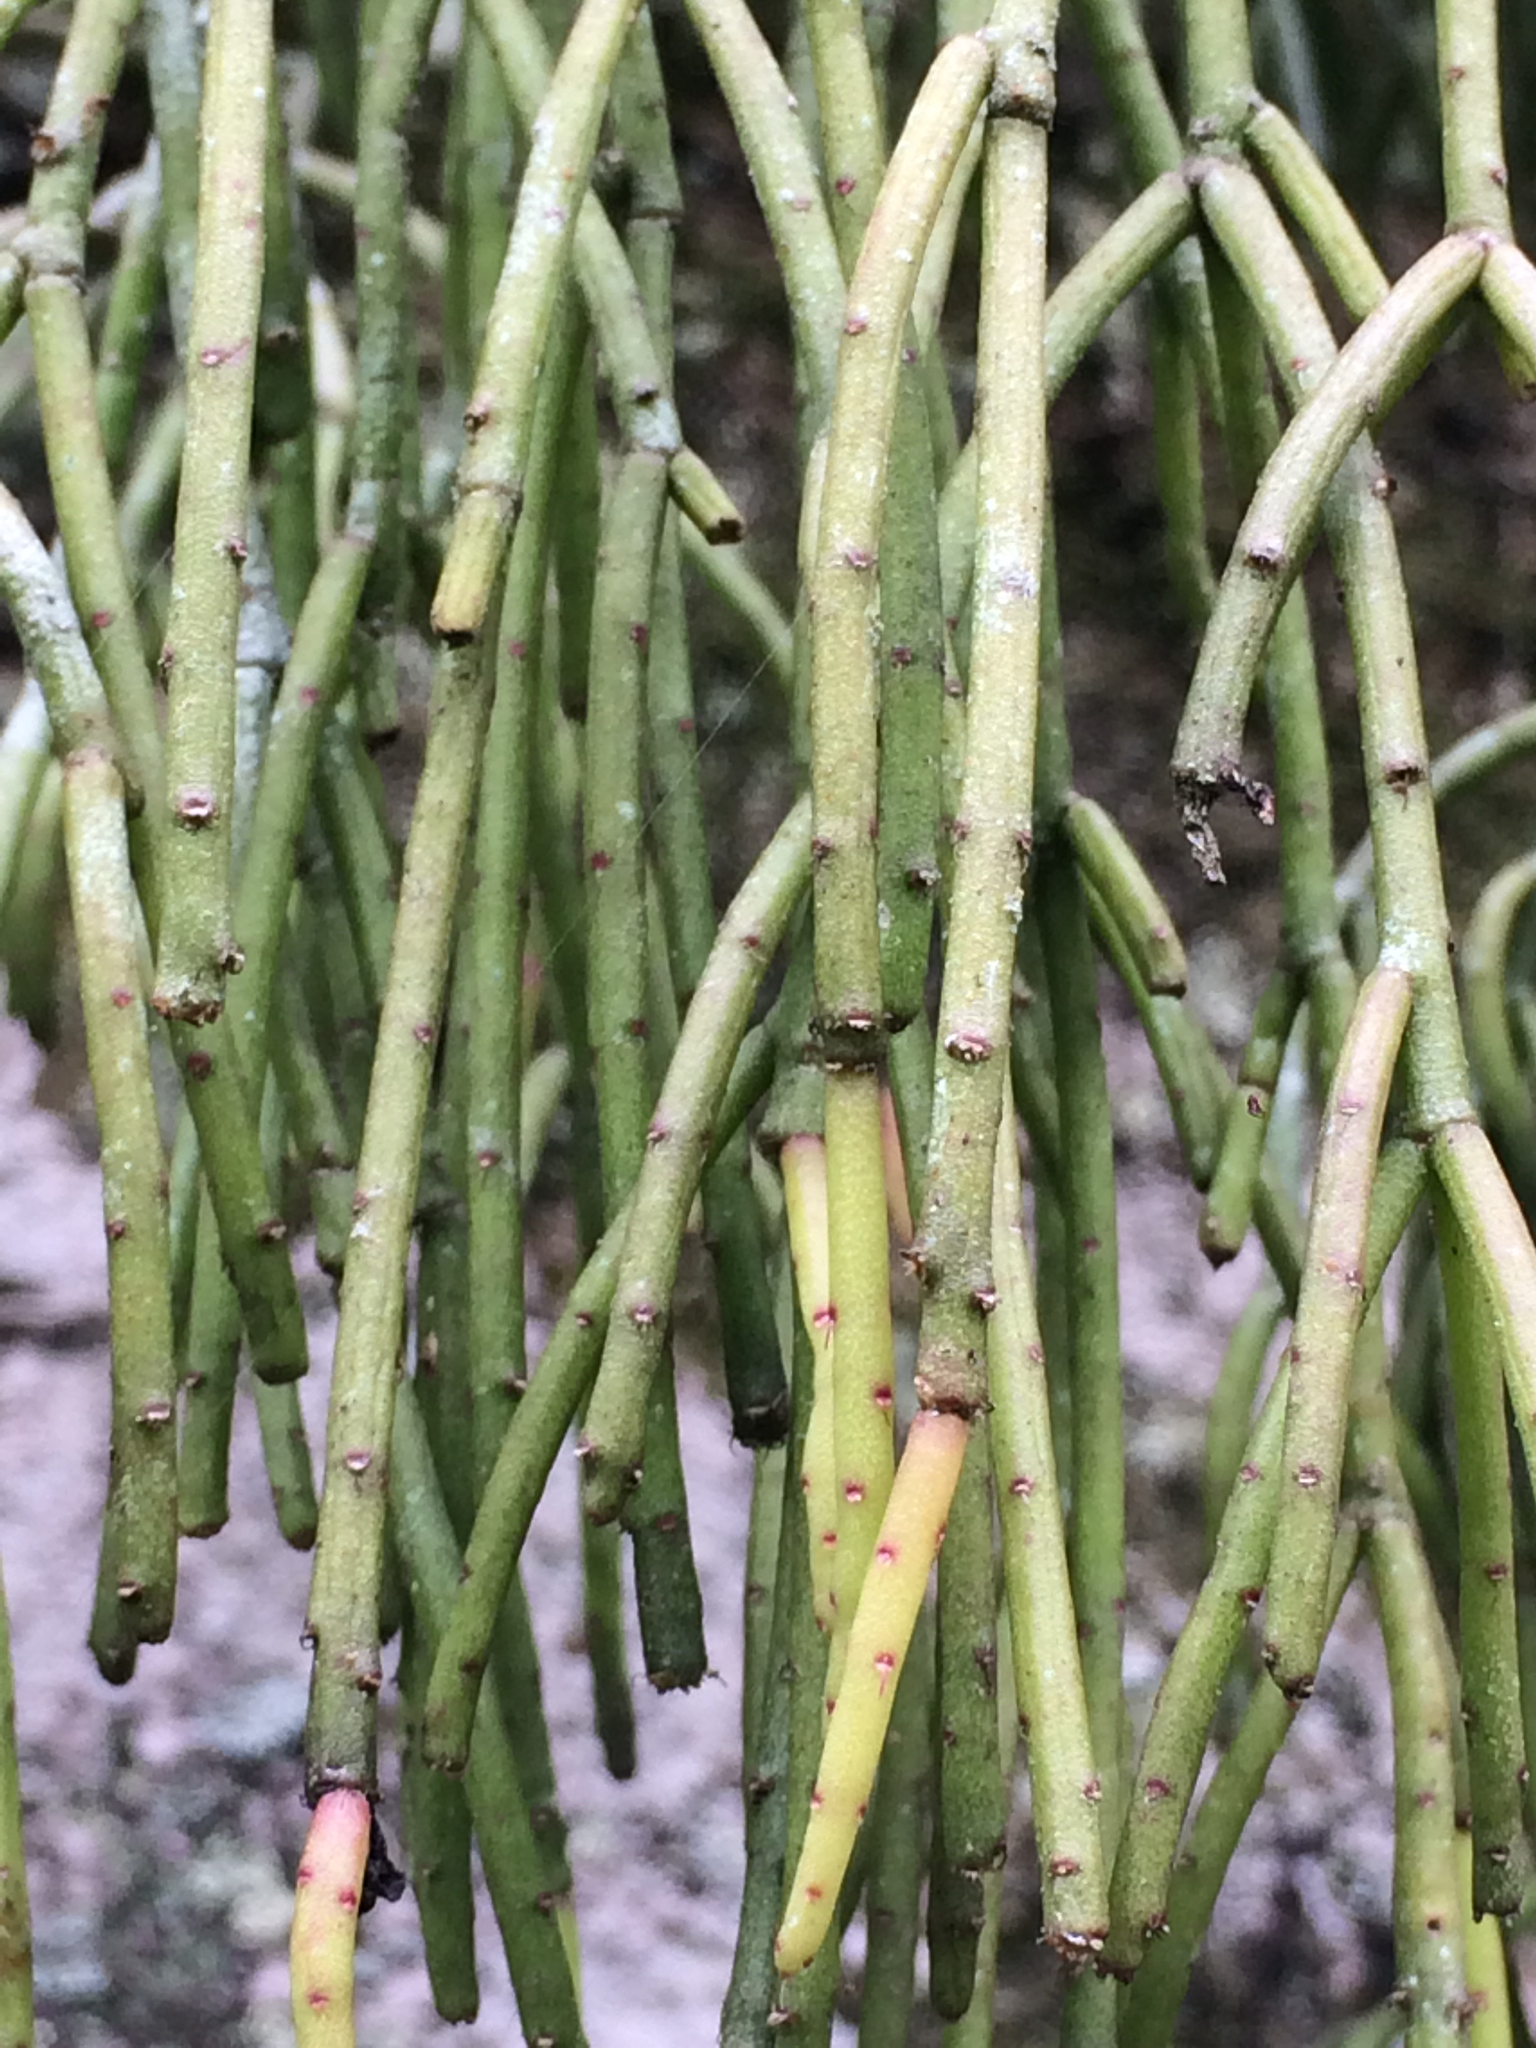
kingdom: Plantae
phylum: Tracheophyta
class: Magnoliopsida
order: Caryophyllales
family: Cactaceae
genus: Rhipsalis
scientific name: Rhipsalis teres
